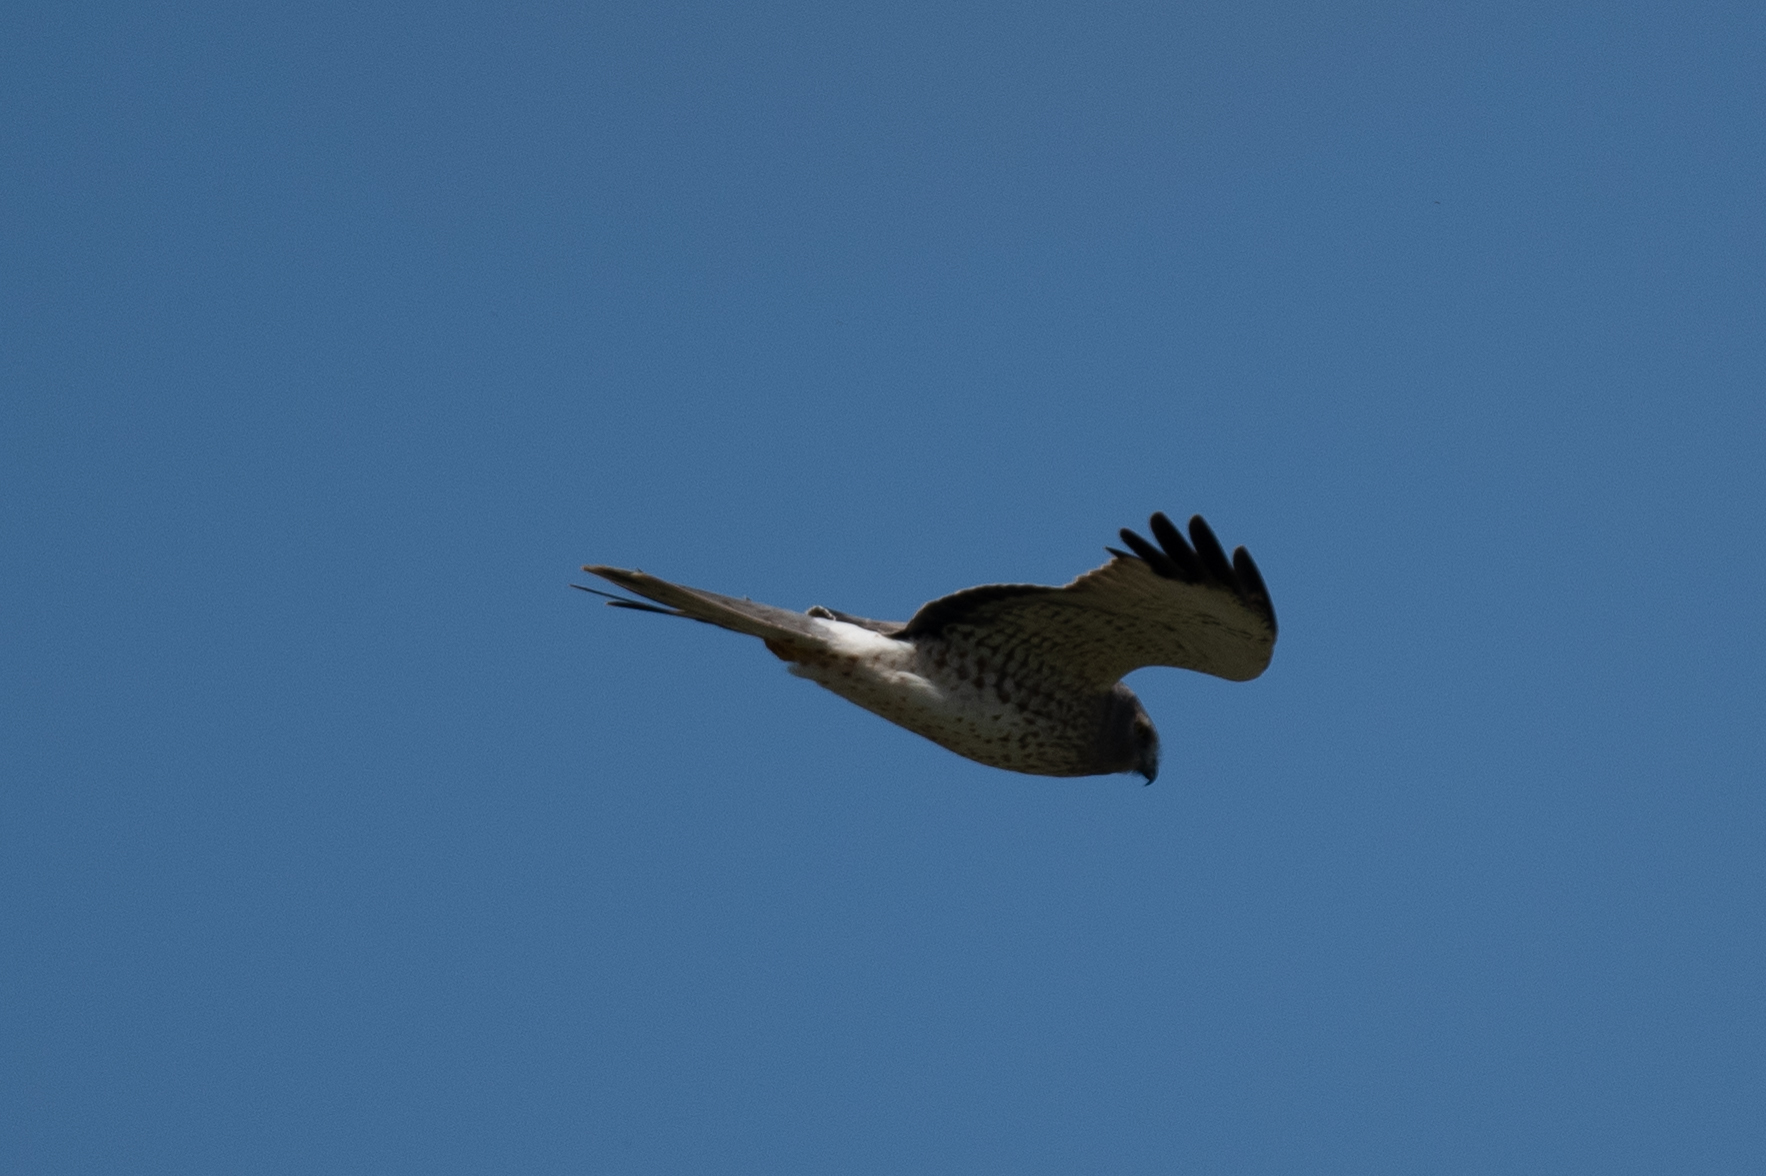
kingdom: Animalia
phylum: Chordata
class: Aves
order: Accipitriformes
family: Accipitridae
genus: Circus
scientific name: Circus cyaneus
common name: Hen harrier
